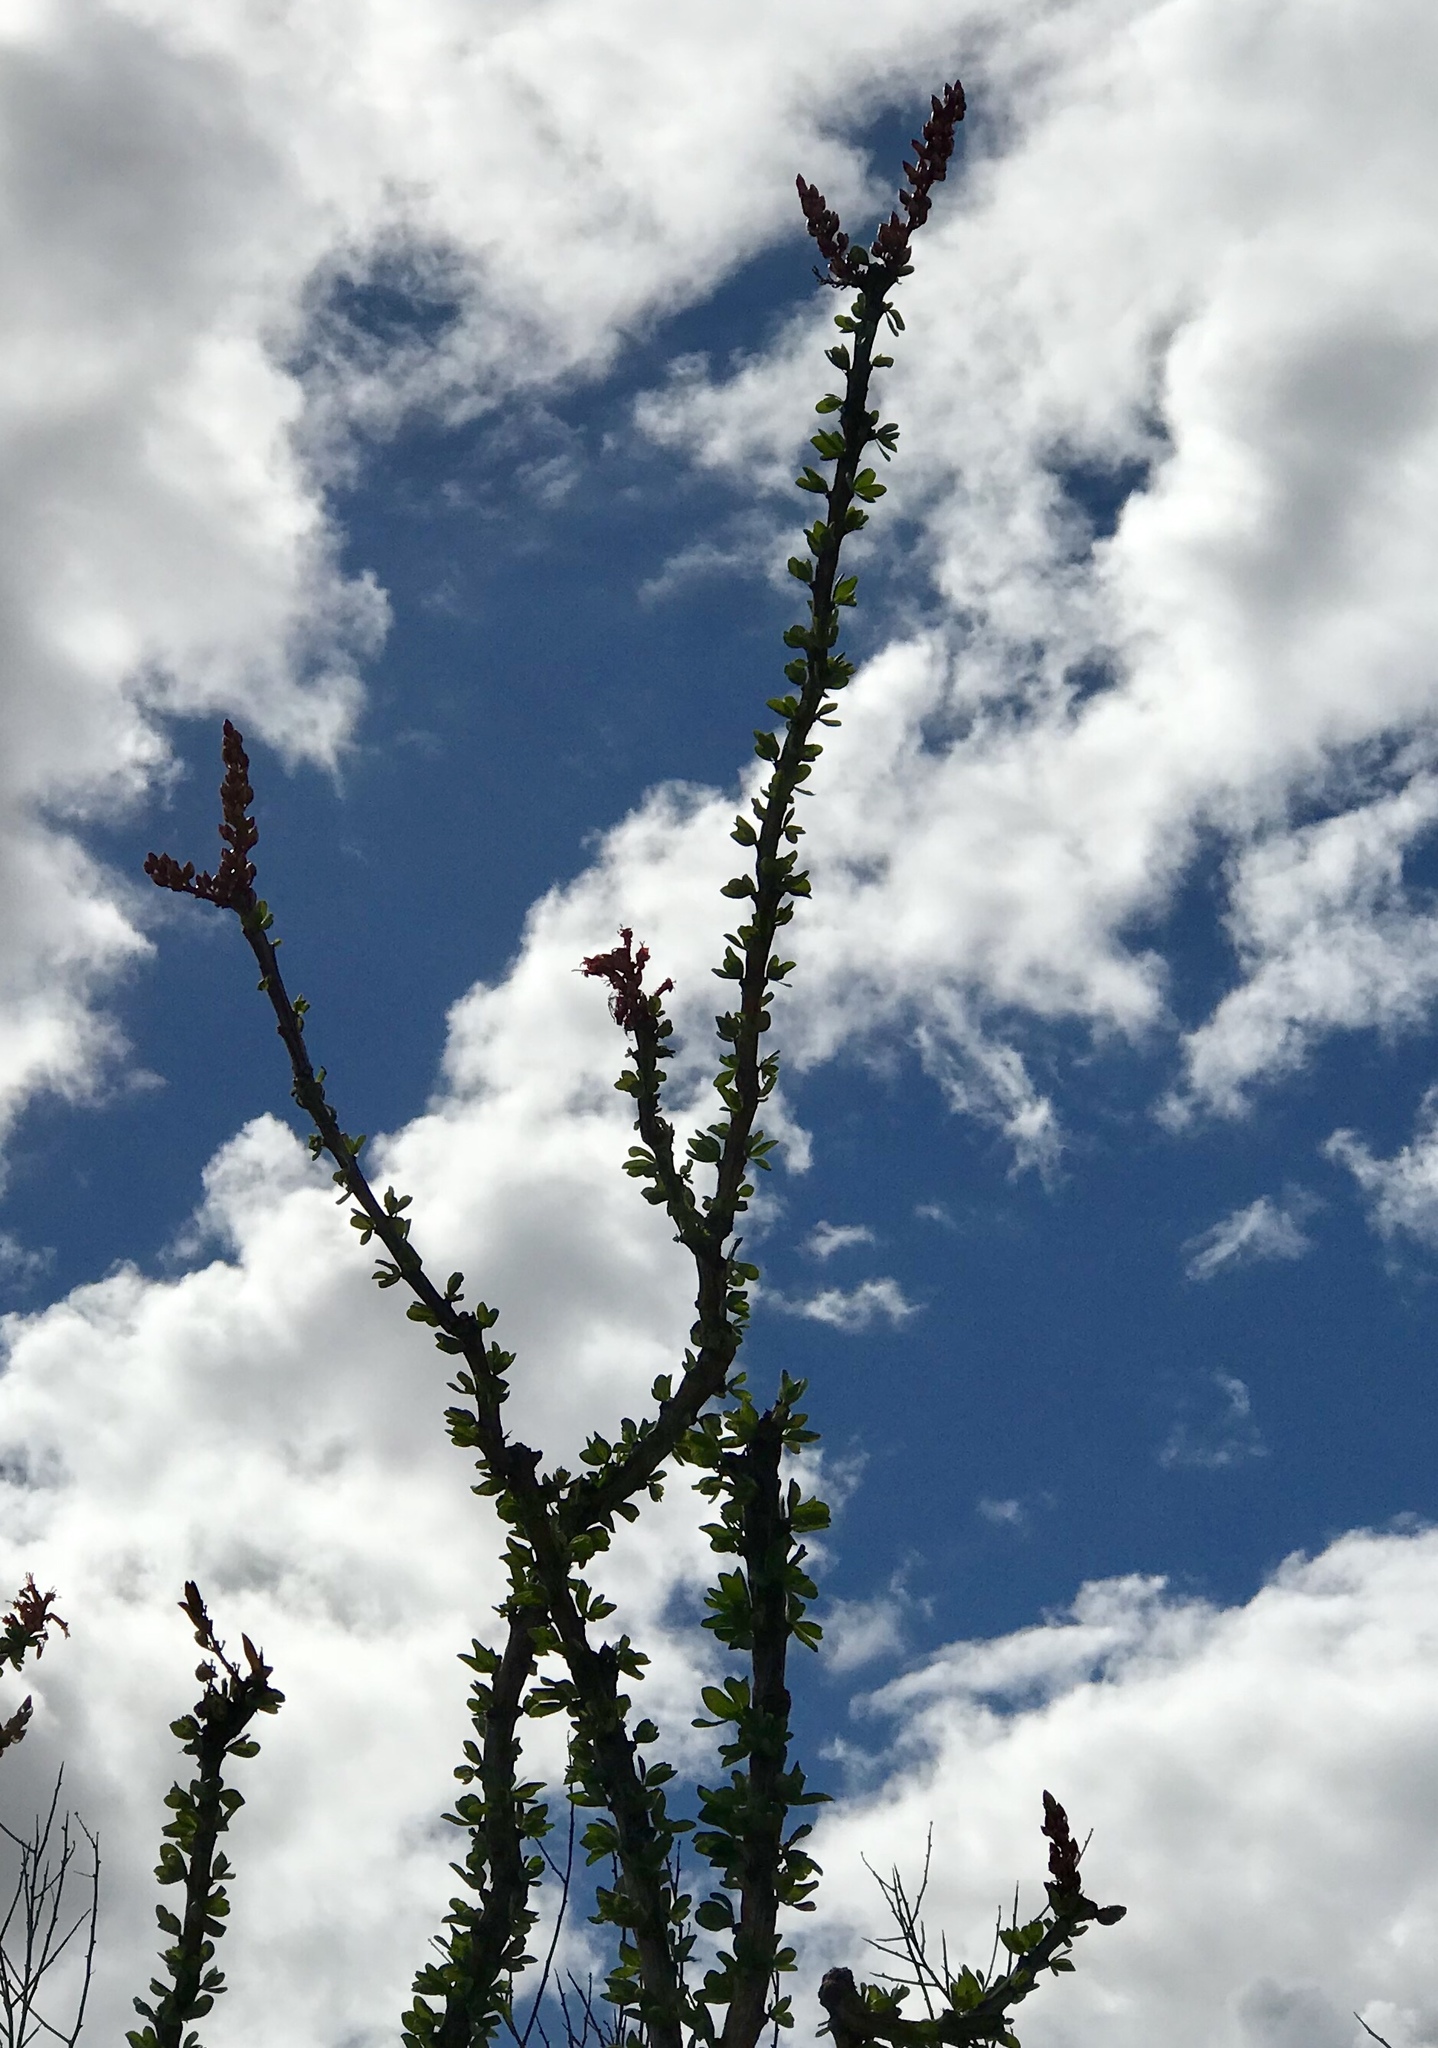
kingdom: Plantae
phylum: Tracheophyta
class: Magnoliopsida
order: Ericales
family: Fouquieriaceae
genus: Fouquieria
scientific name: Fouquieria splendens
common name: Vine-cactus
